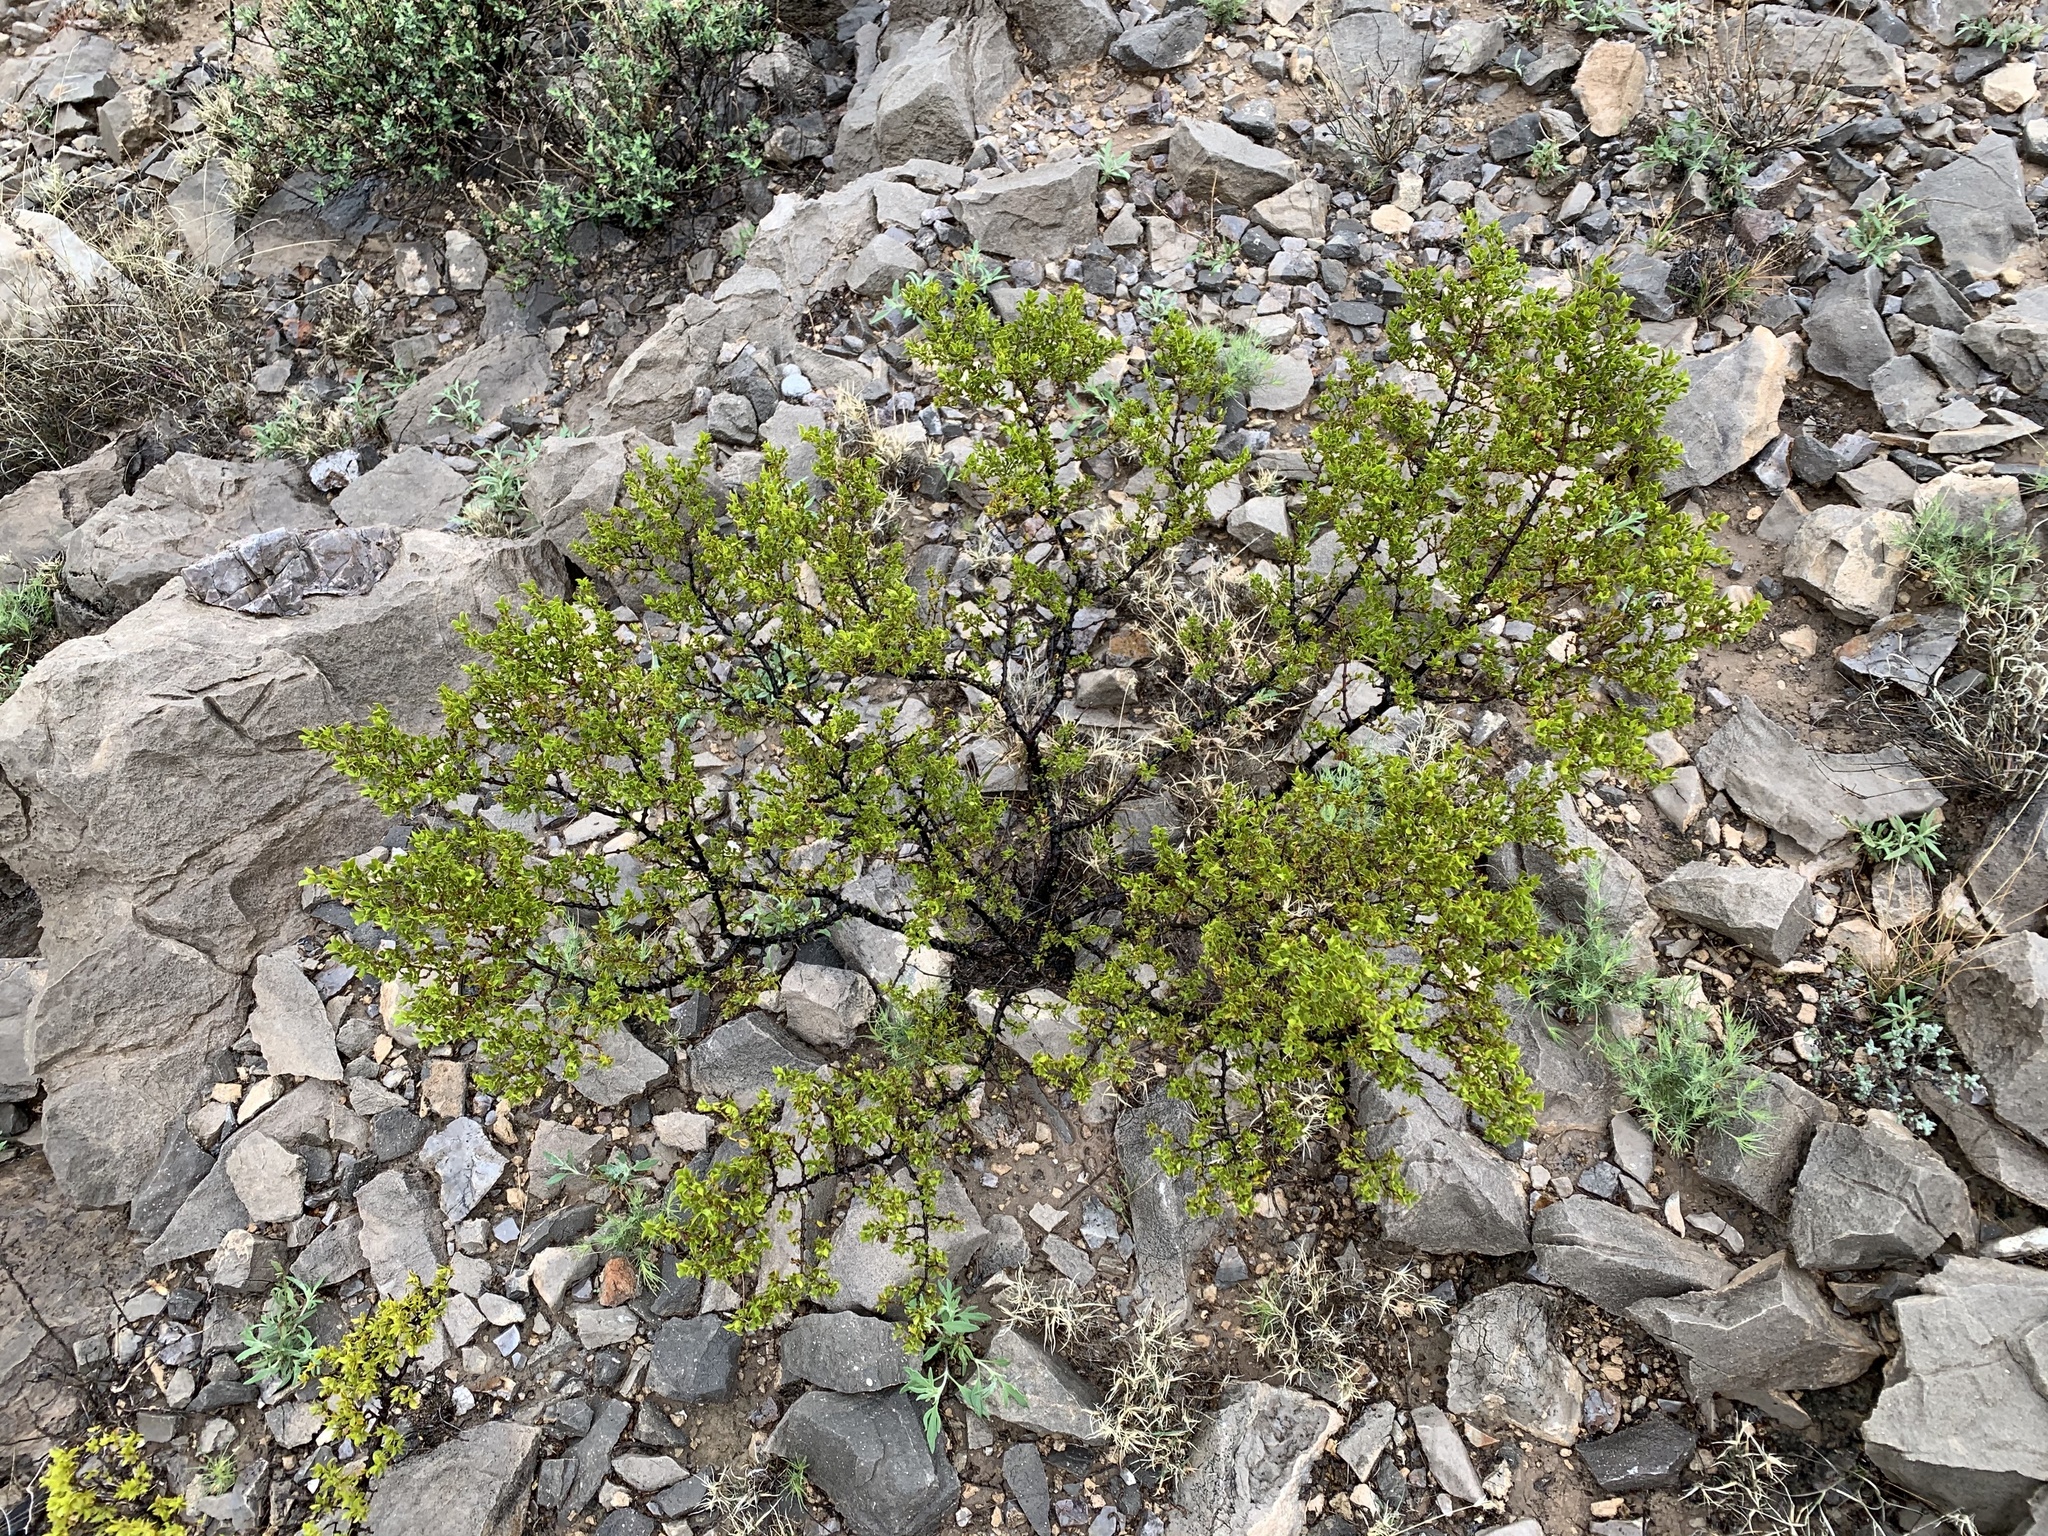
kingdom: Plantae
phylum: Tracheophyta
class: Magnoliopsida
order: Zygophyllales
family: Zygophyllaceae
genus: Larrea
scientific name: Larrea tridentata
